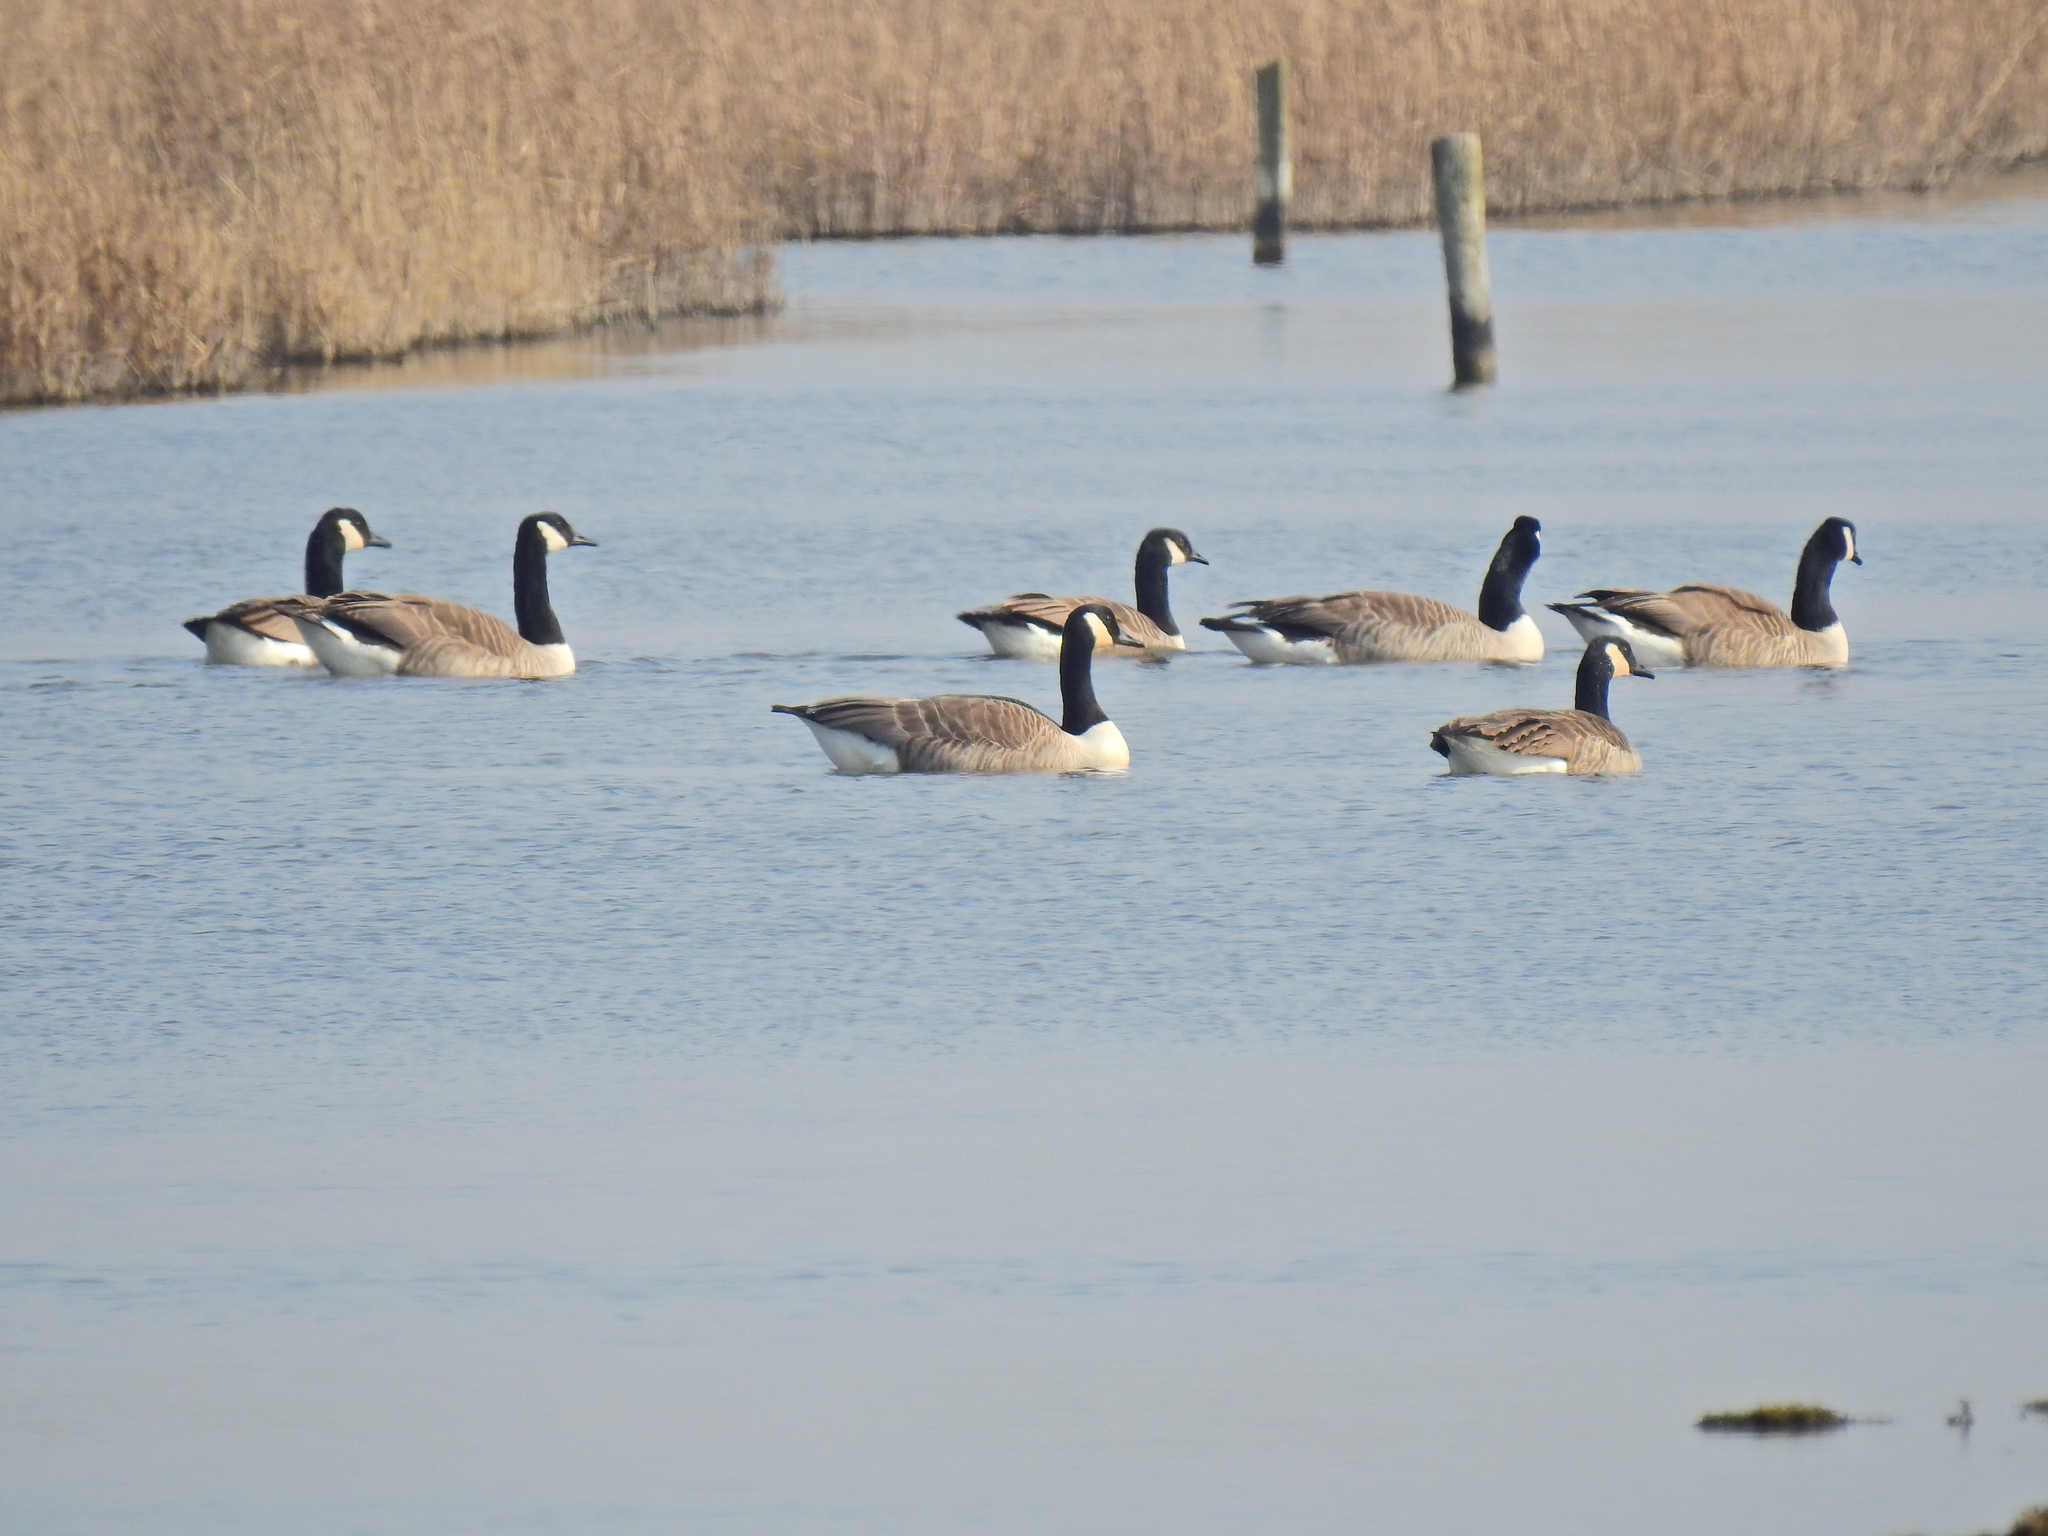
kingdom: Animalia
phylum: Chordata
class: Aves
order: Anseriformes
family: Anatidae
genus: Branta
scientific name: Branta canadensis
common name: Canada goose
